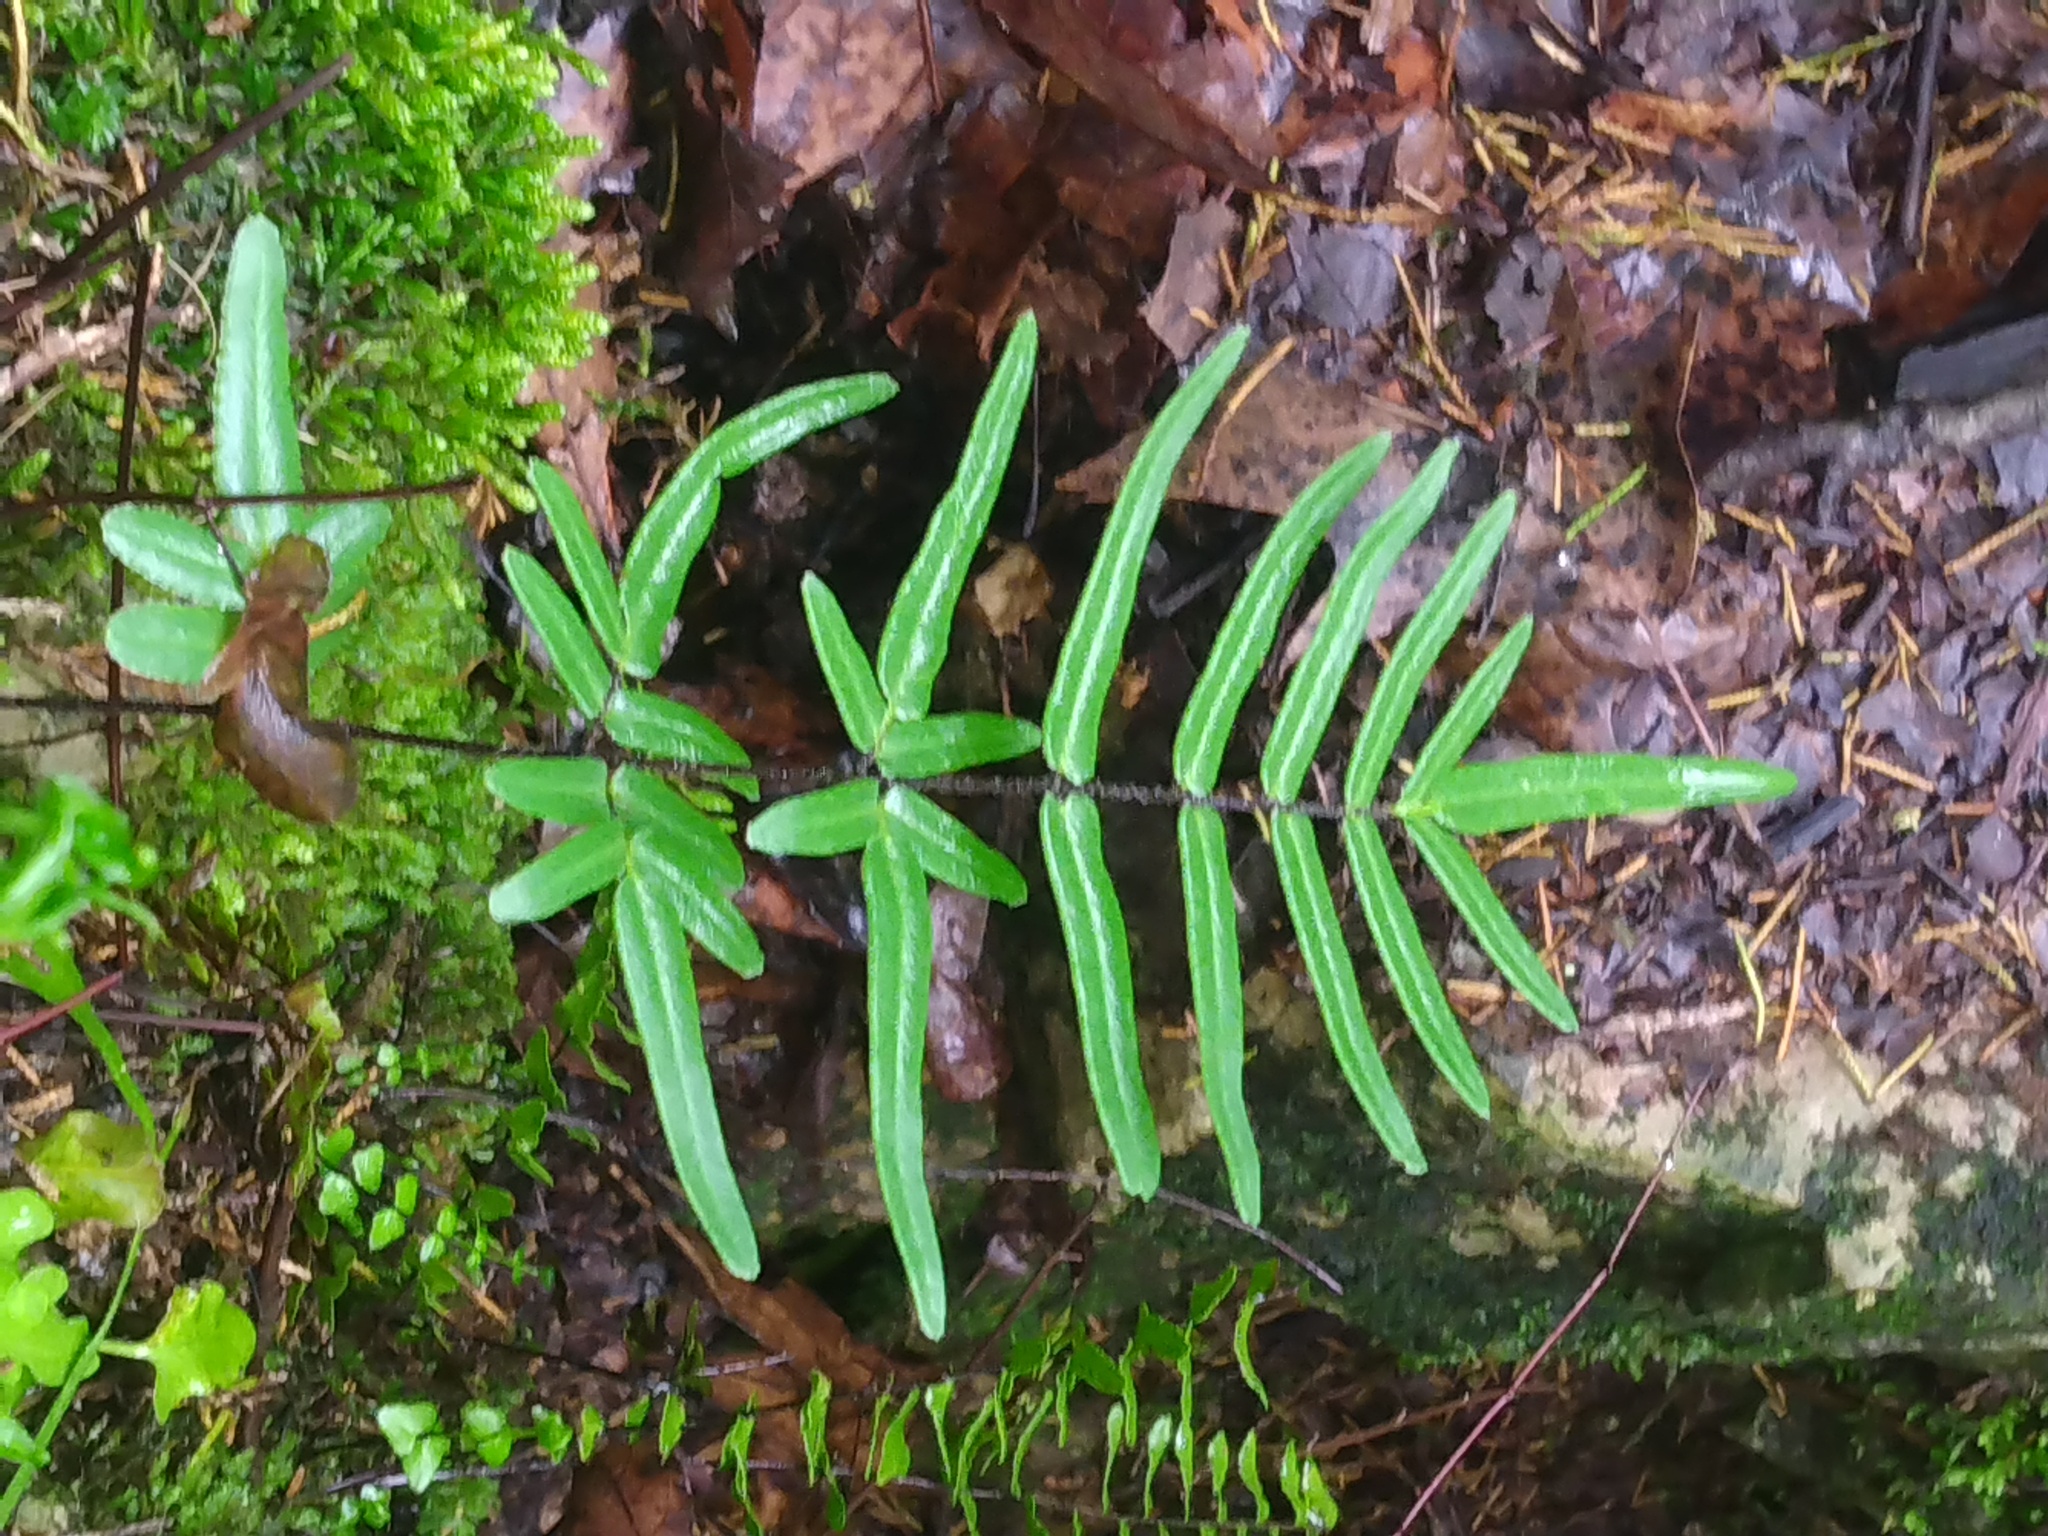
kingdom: Plantae
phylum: Tracheophyta
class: Polypodiopsida
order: Polypodiales
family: Pteridaceae
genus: Pellaea
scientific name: Pellaea atropurpurea
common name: Hairy cliffbrake
